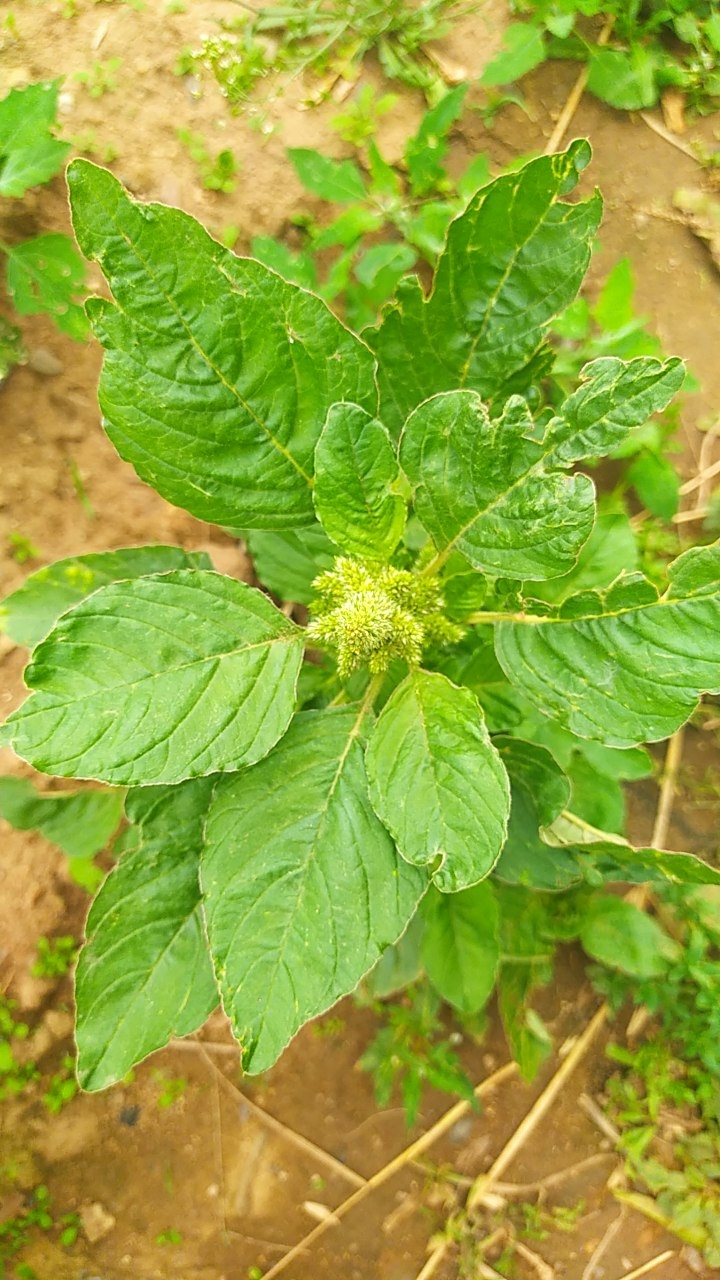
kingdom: Plantae
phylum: Tracheophyta
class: Magnoliopsida
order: Caryophyllales
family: Amaranthaceae
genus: Amaranthus
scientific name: Amaranthus retroflexus
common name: Redroot amaranth
